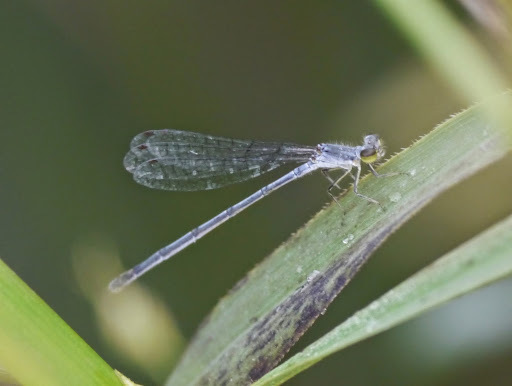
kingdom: Animalia
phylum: Arthropoda
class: Insecta
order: Odonata
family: Coenagrionidae
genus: Ischnura
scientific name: Ischnura posita
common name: Fragile forktail
